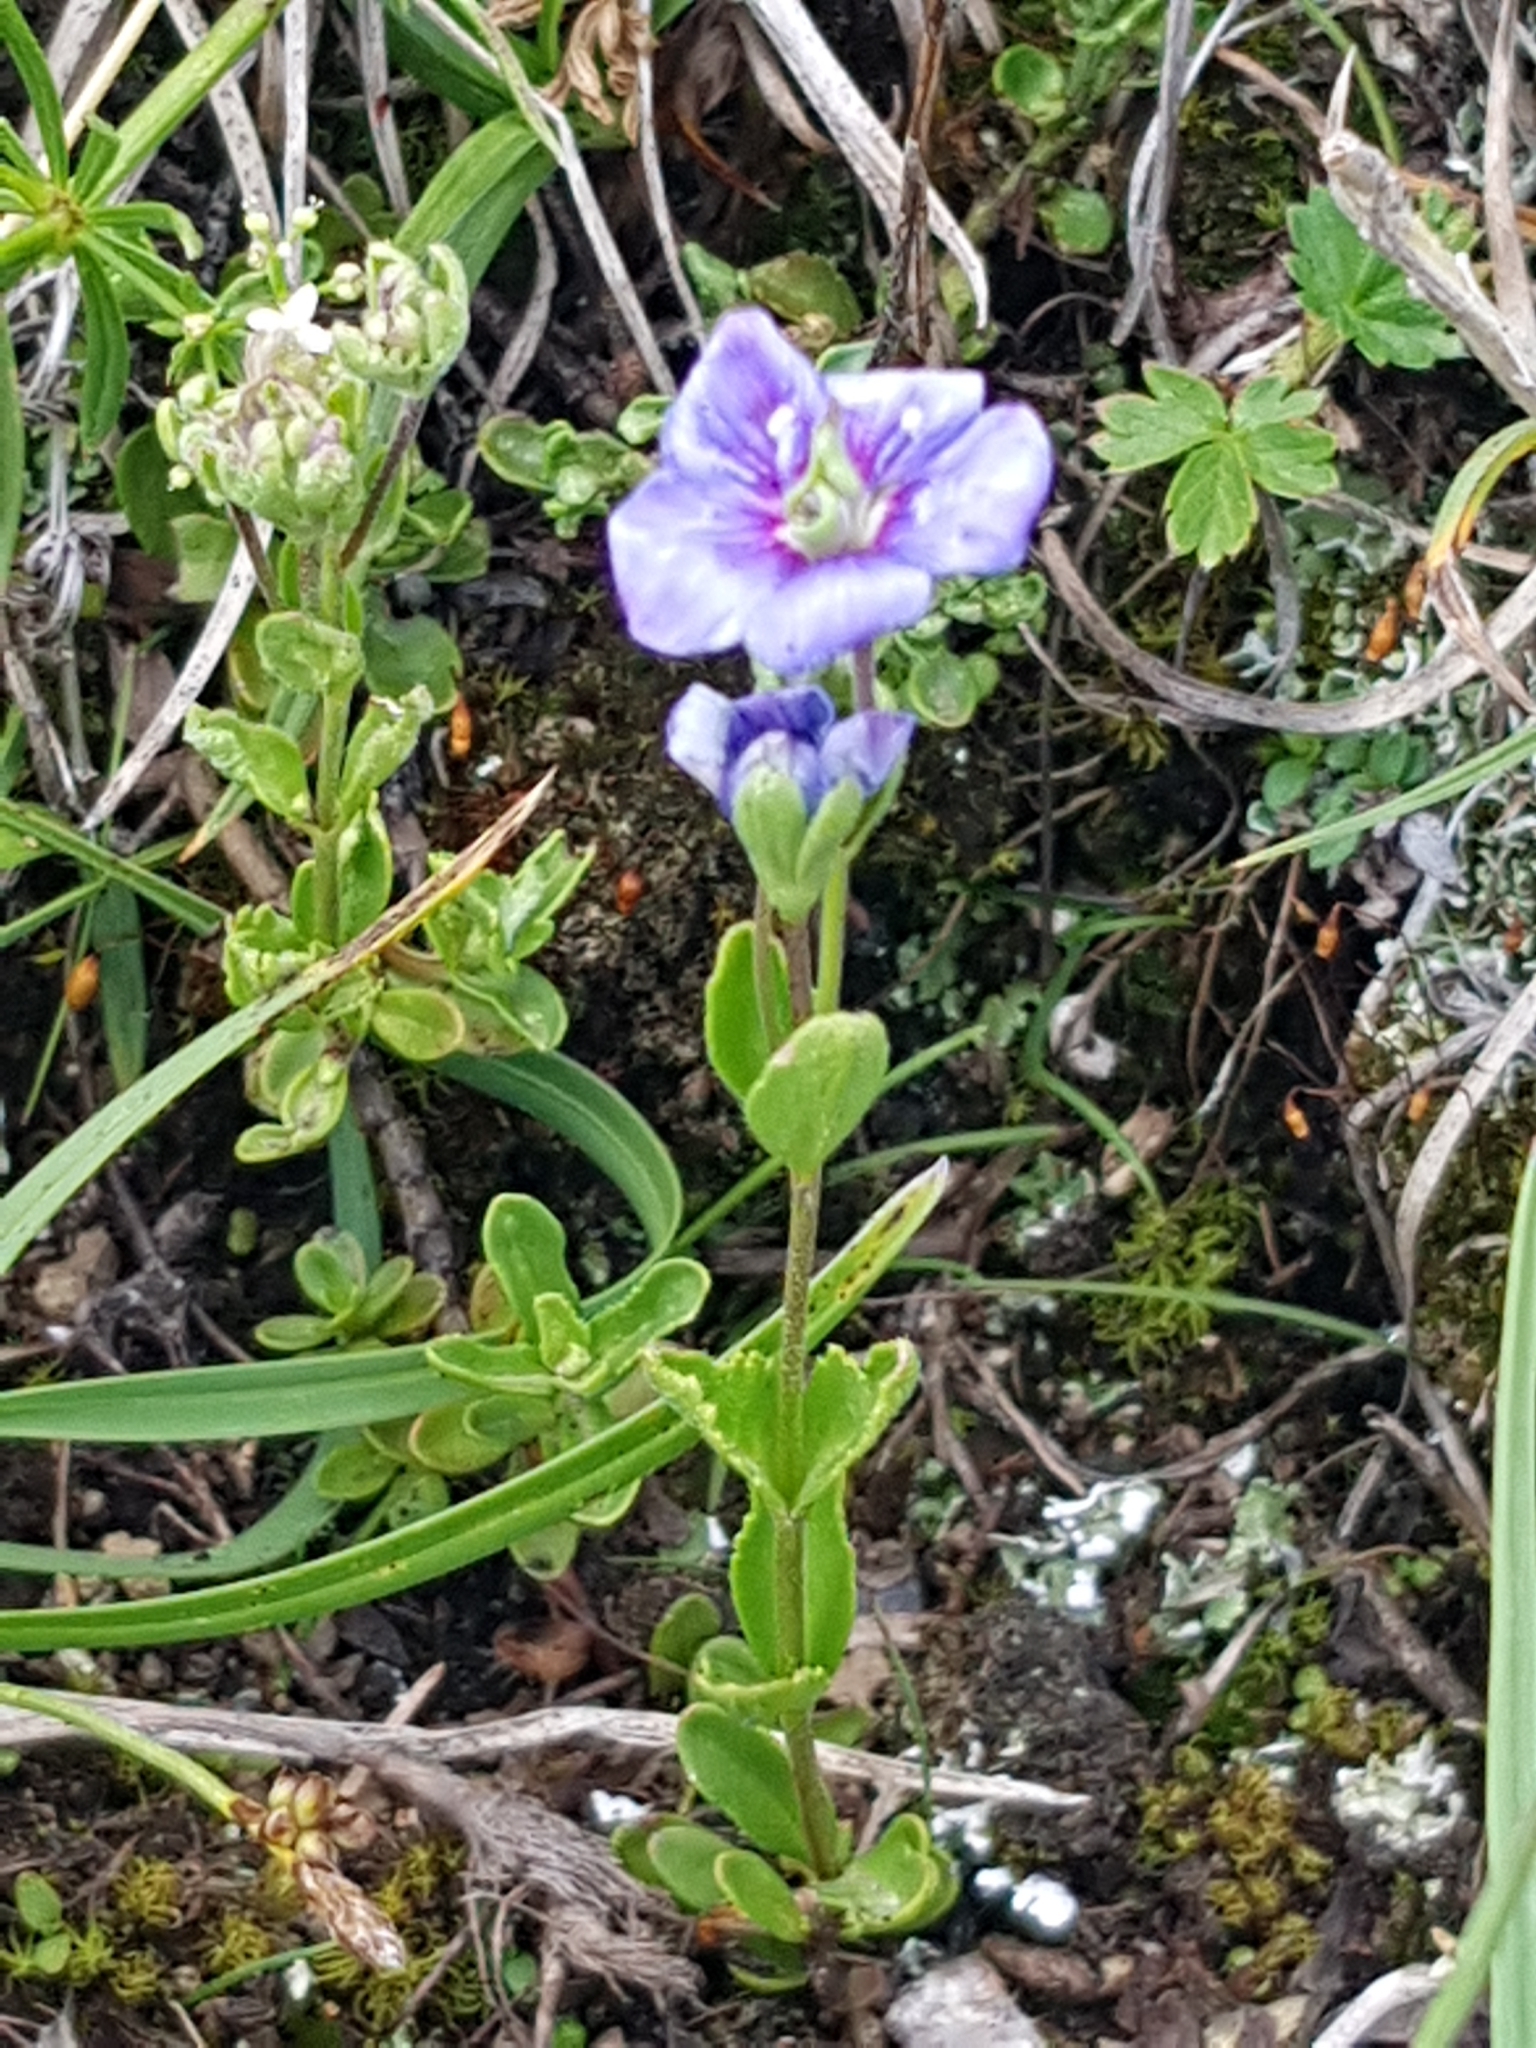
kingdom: Plantae
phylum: Tracheophyta
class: Magnoliopsida
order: Lamiales
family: Plantaginaceae
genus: Veronica
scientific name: Veronica fruticans
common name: Rock speedwell
